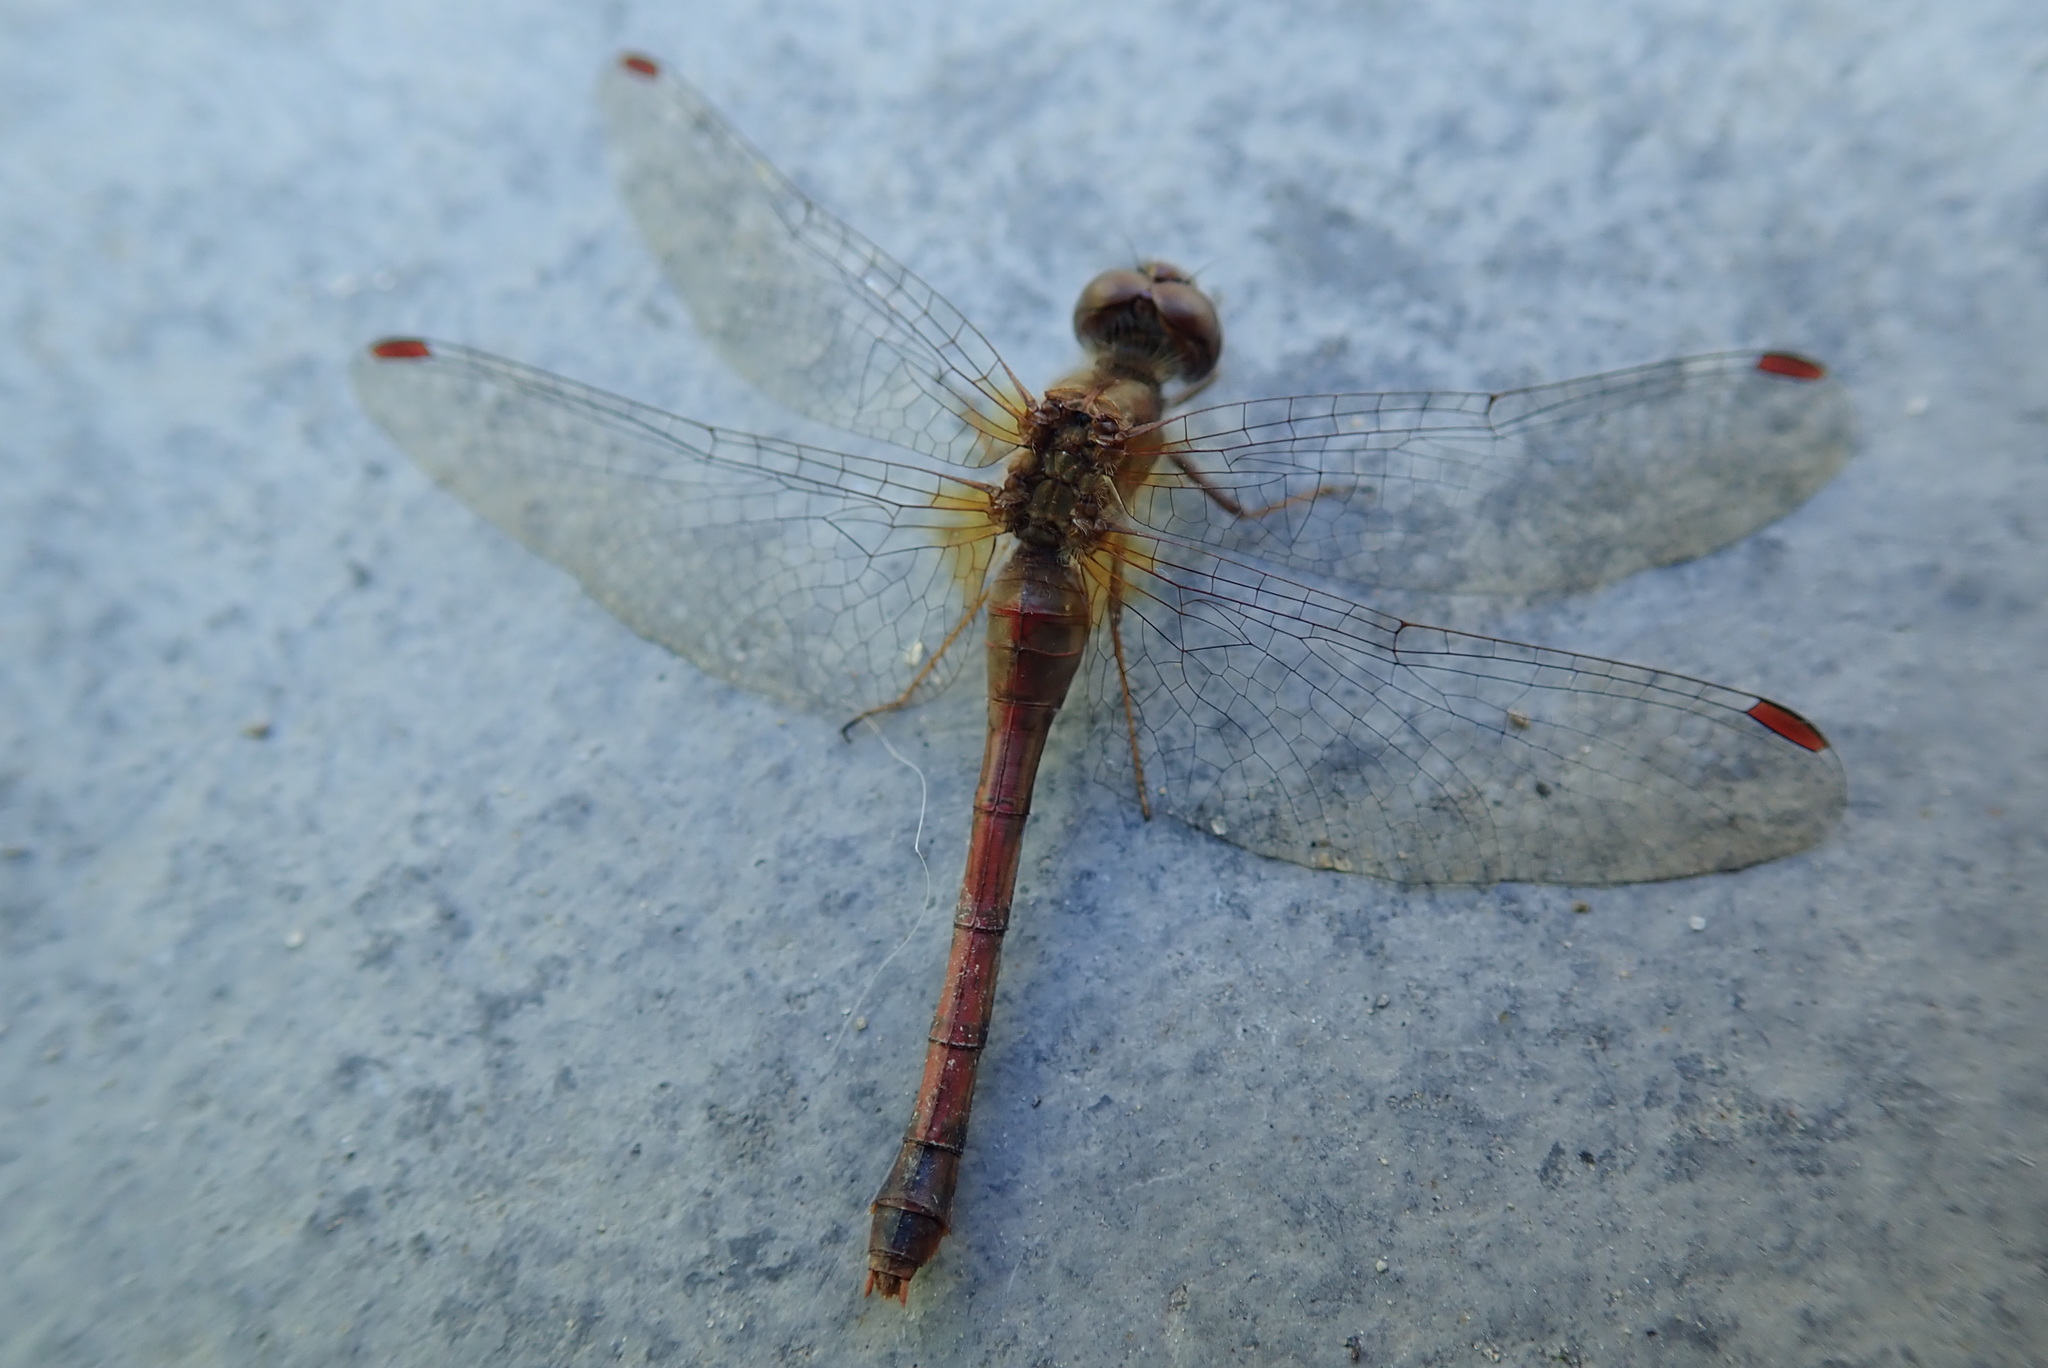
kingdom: Animalia
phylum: Arthropoda
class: Insecta
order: Odonata
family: Libellulidae
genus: Sympetrum
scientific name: Sympetrum vicinum
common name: Autumn meadowhawk
